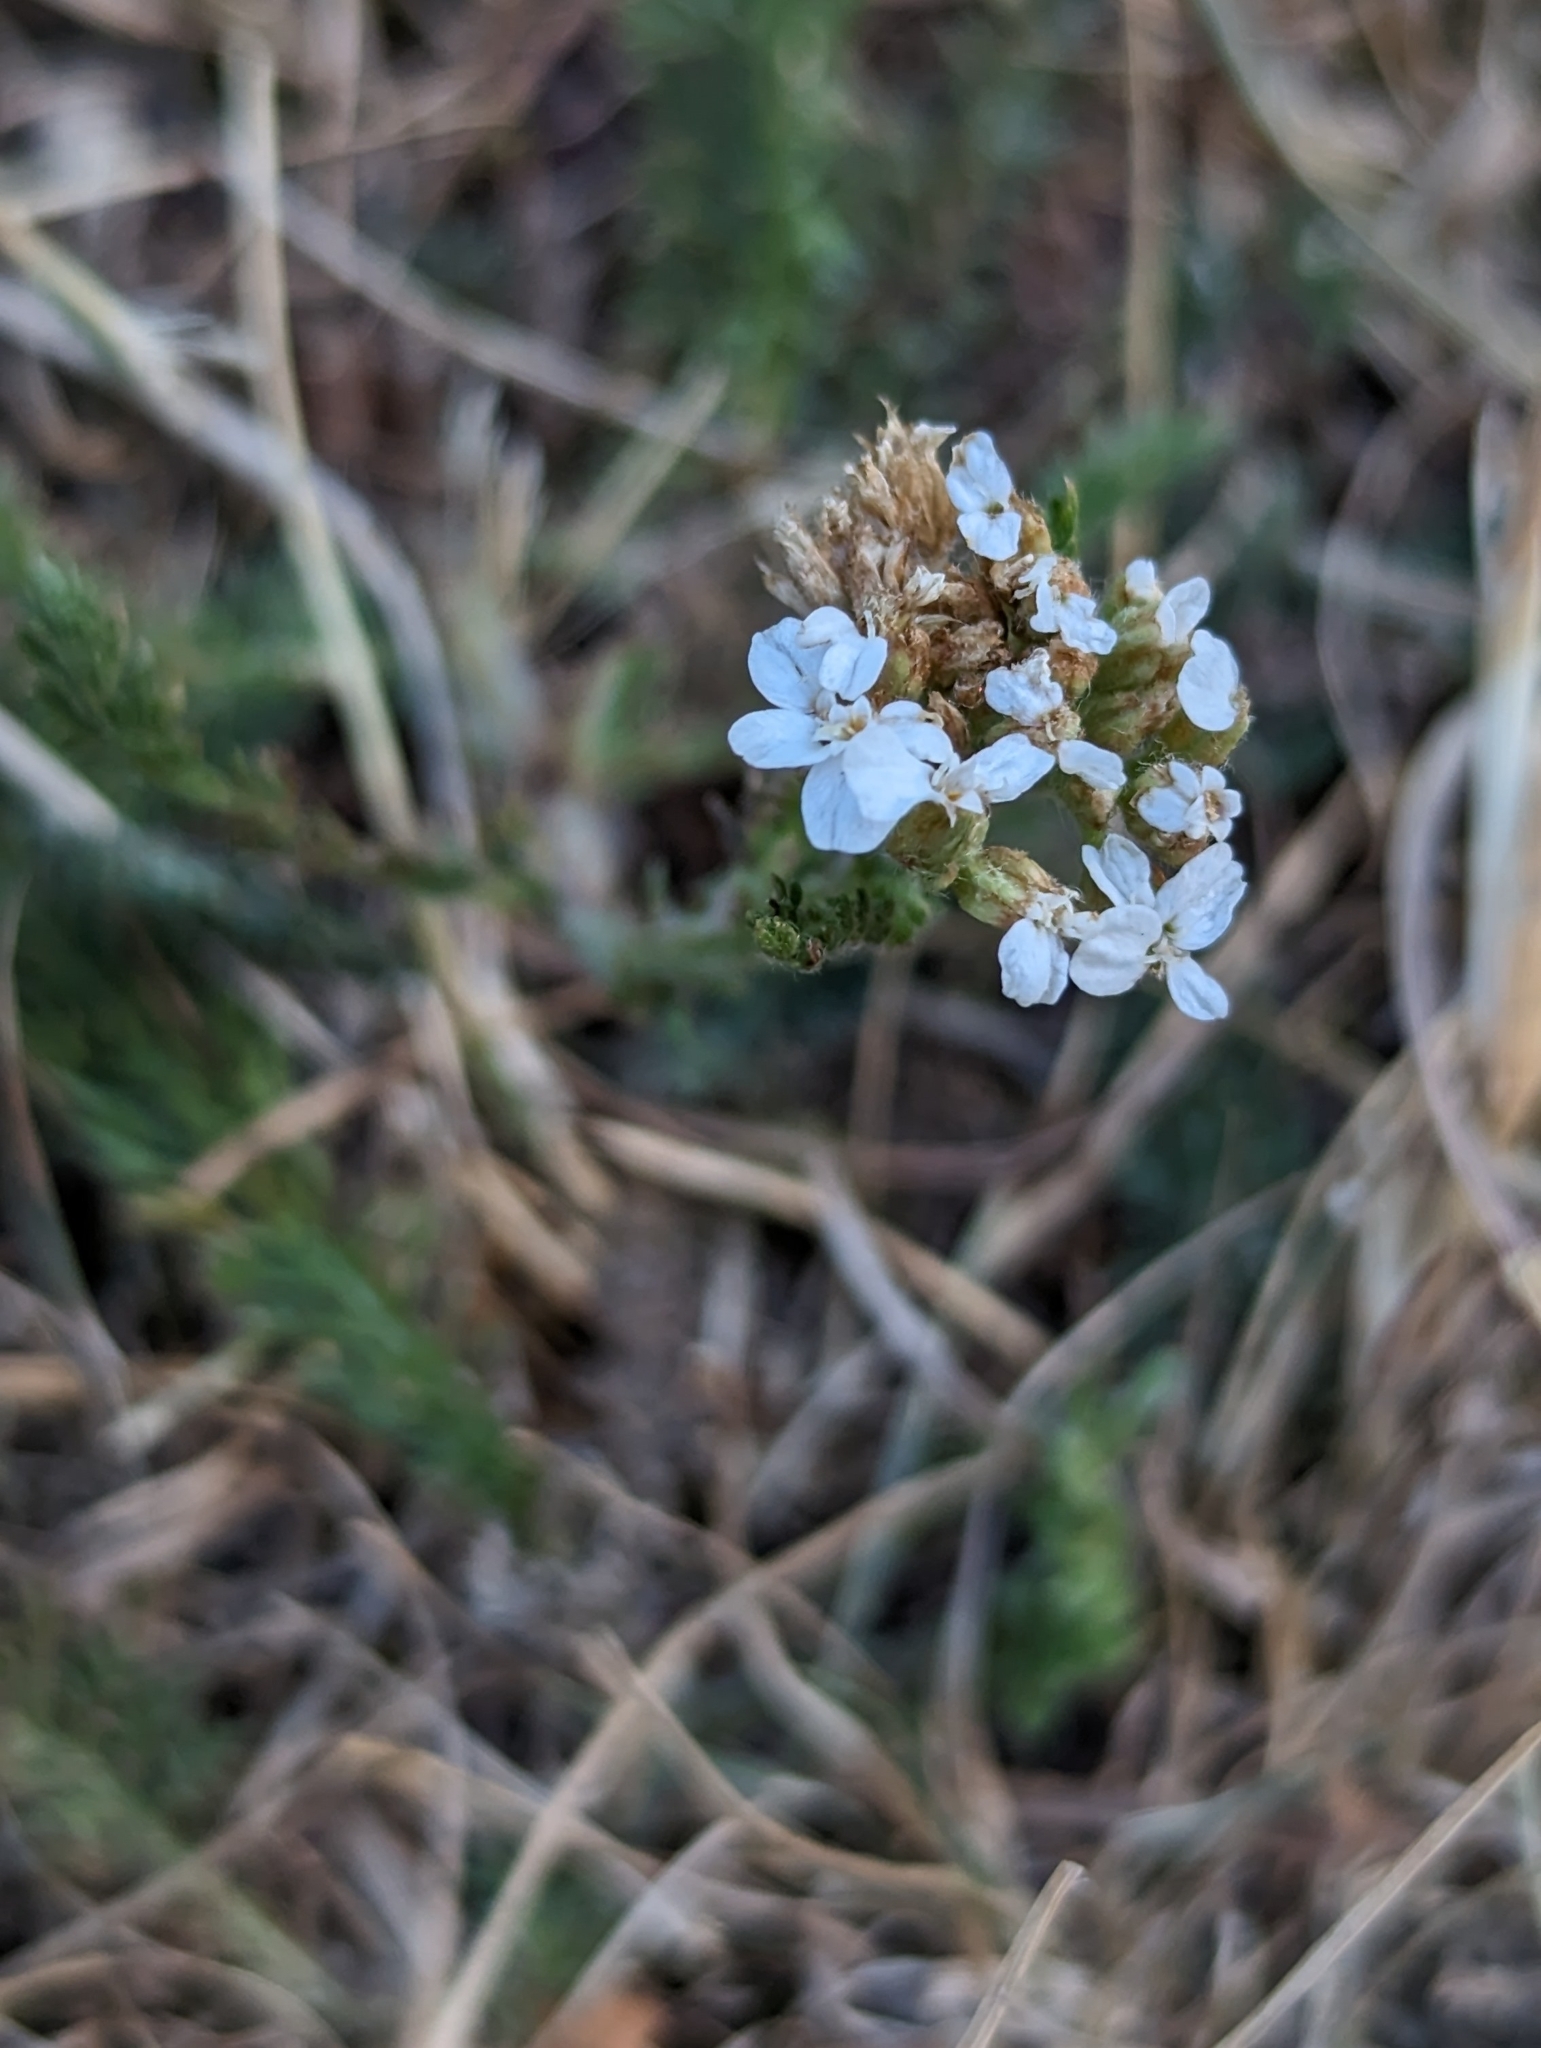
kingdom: Plantae
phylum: Tracheophyta
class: Magnoliopsida
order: Asterales
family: Asteraceae
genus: Achillea
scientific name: Achillea millefolium
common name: Yarrow
